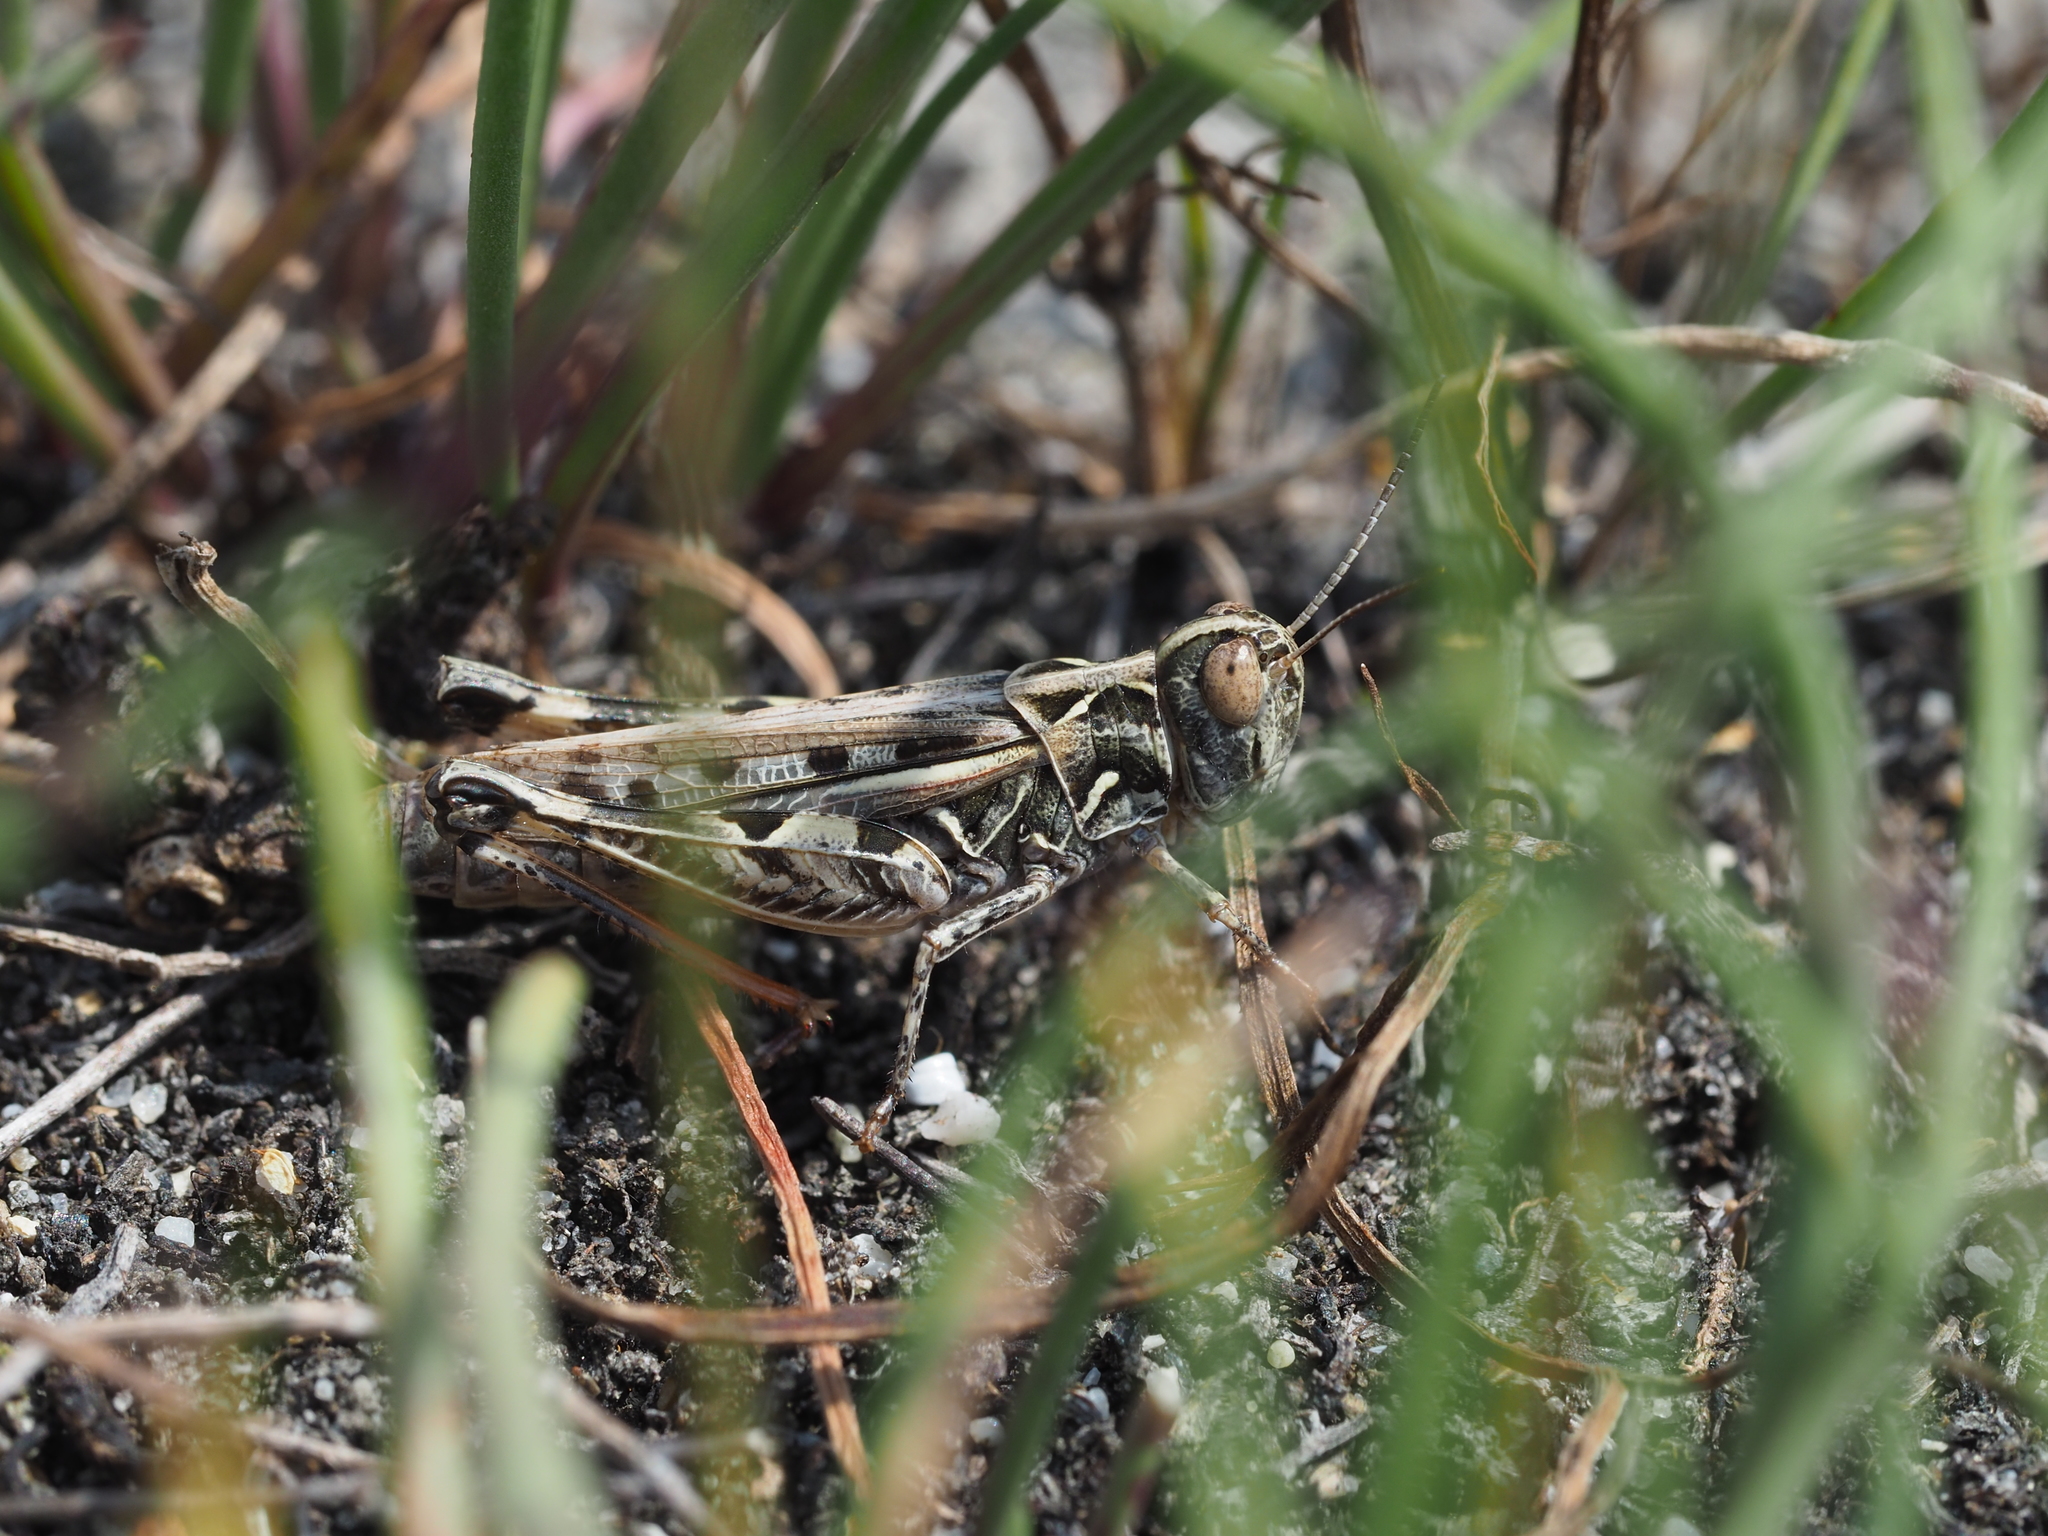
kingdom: Animalia
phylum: Arthropoda
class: Insecta
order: Orthoptera
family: Acrididae
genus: Dociostaurus
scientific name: Dociostaurus brevicollis
